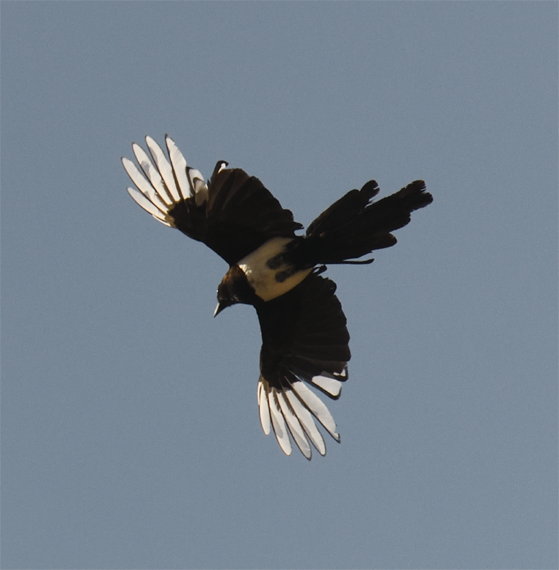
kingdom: Animalia
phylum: Chordata
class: Aves
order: Passeriformes
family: Corvidae
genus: Pica
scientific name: Pica pica
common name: Eurasian magpie
